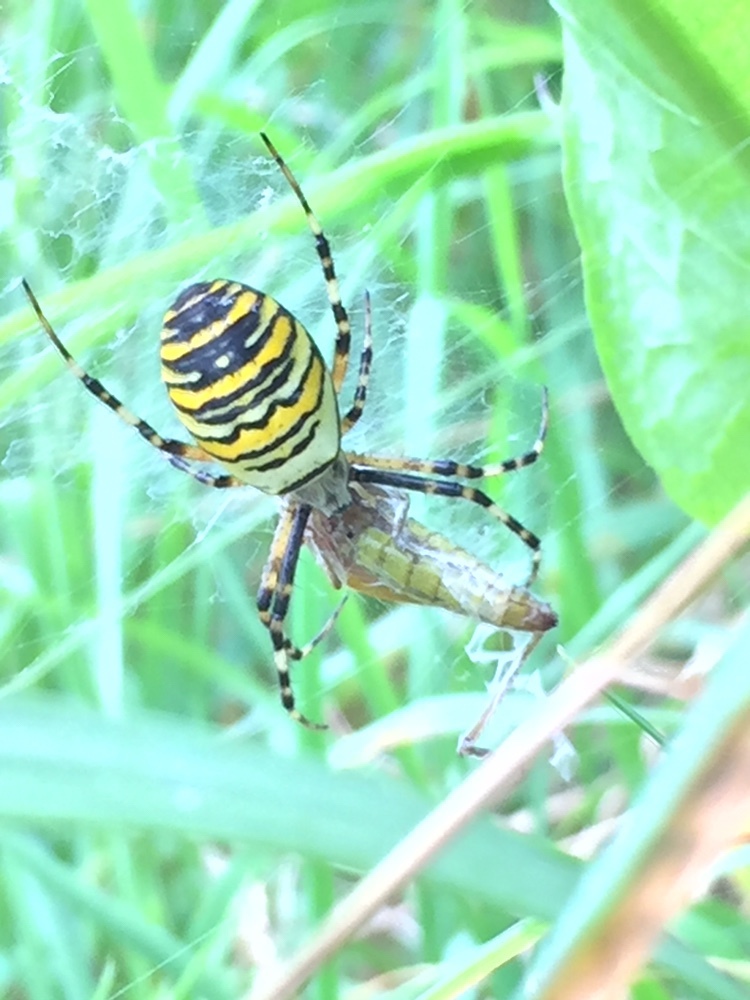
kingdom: Animalia
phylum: Arthropoda
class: Arachnida
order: Araneae
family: Araneidae
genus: Argiope
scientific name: Argiope bruennichi
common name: Wasp spider
